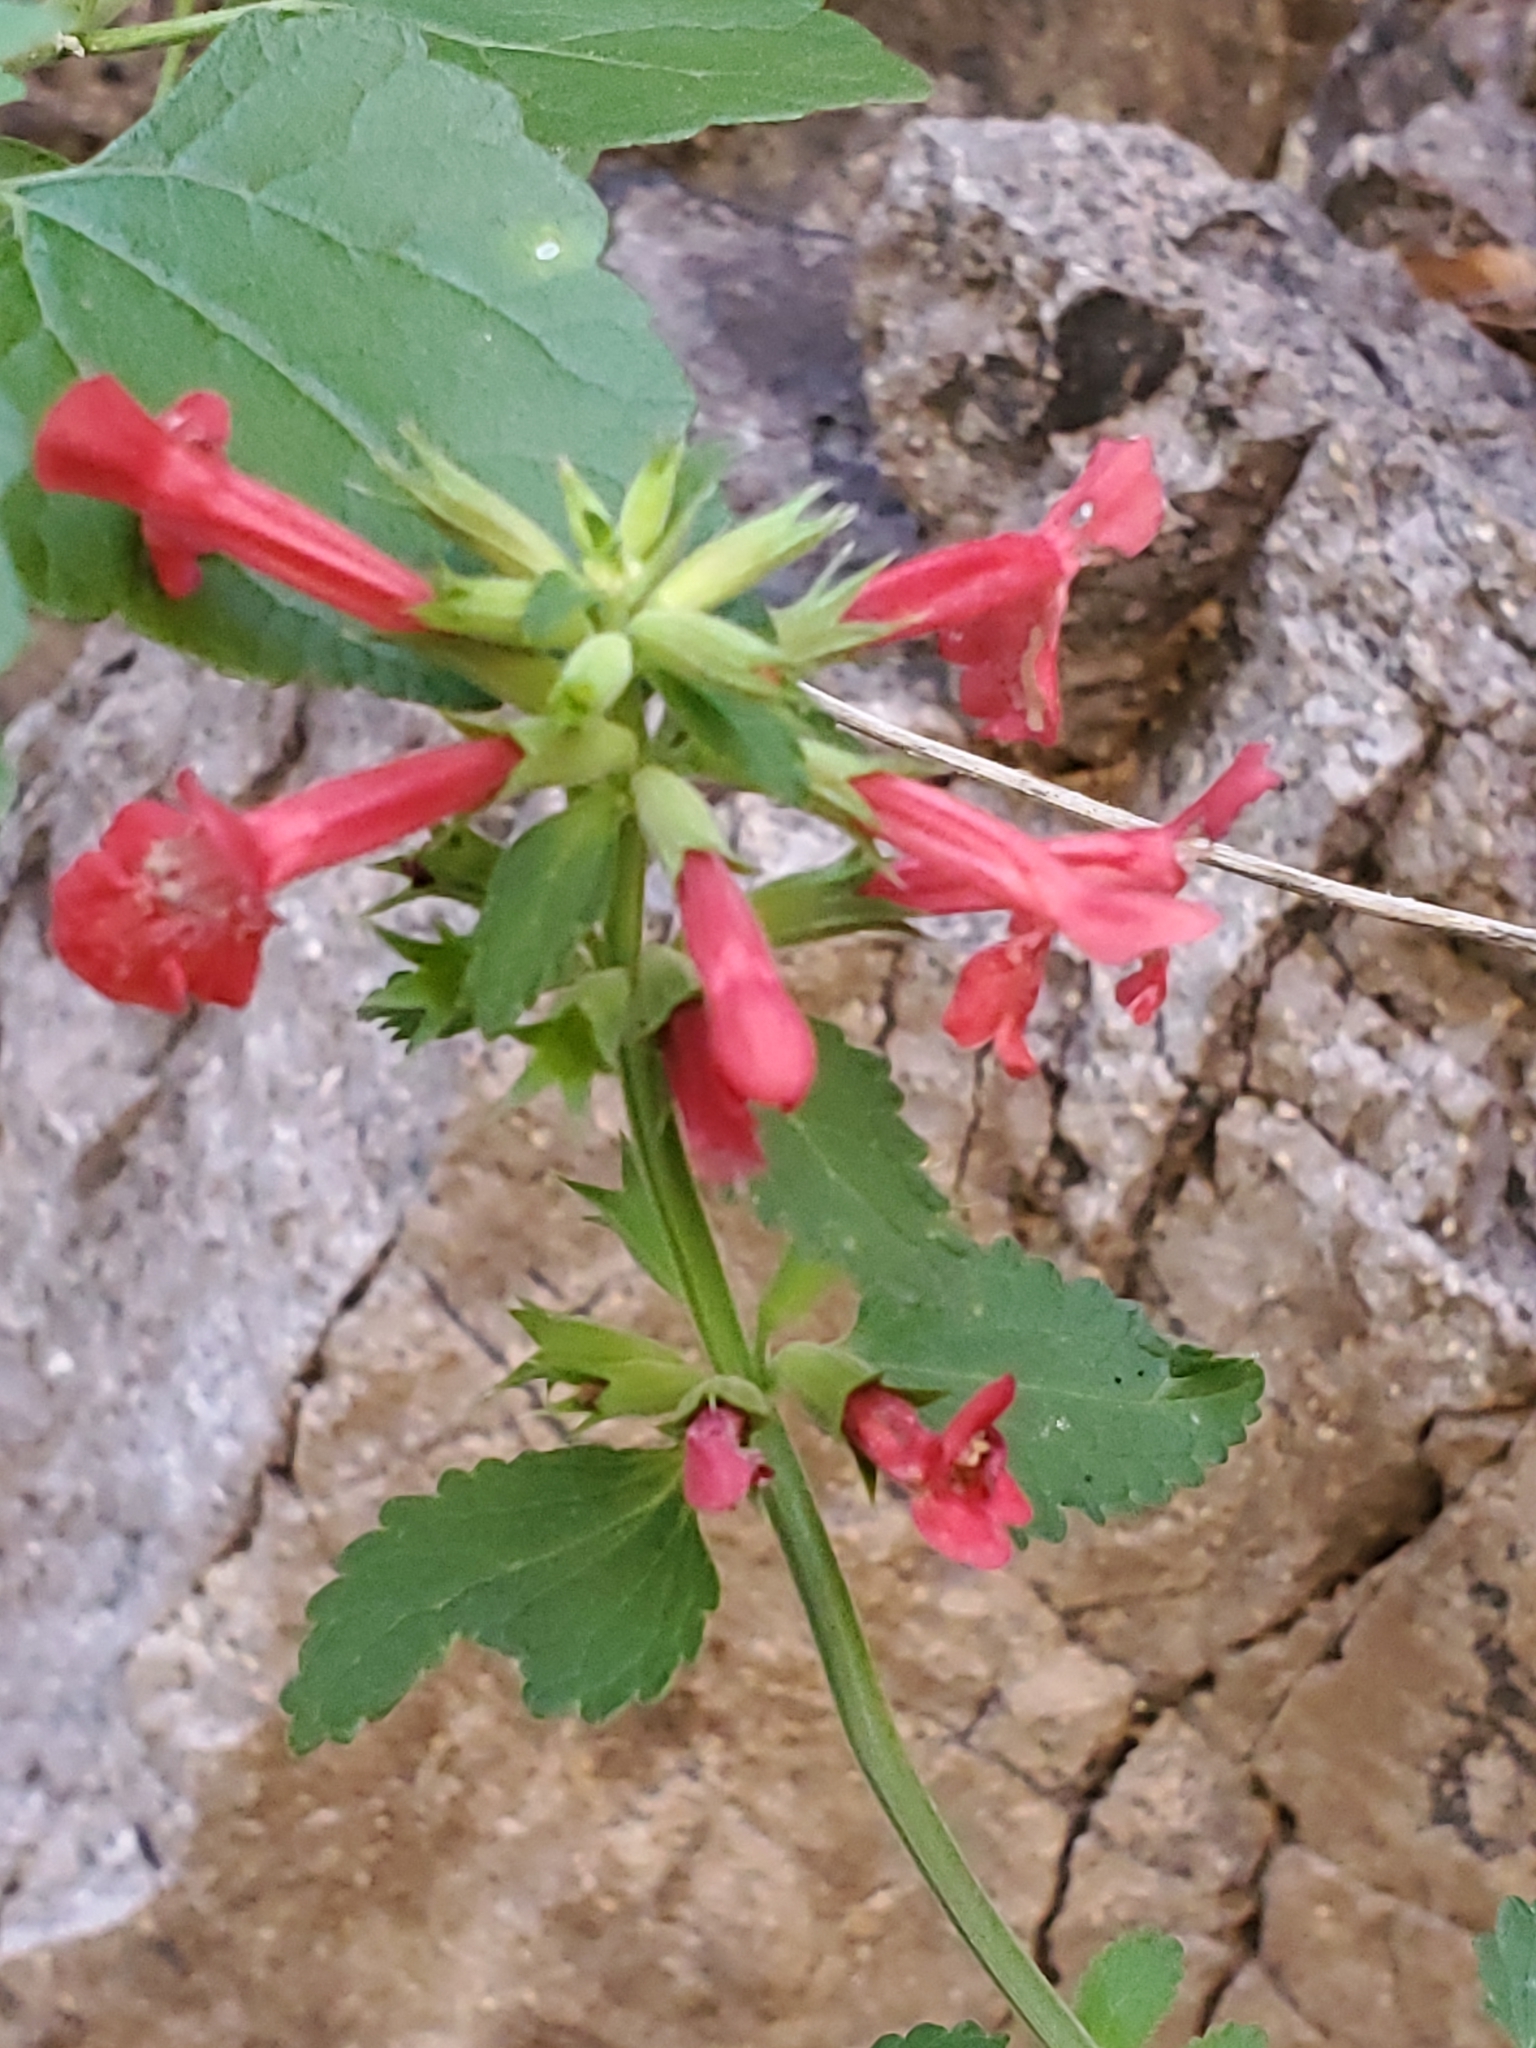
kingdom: Plantae
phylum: Tracheophyta
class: Magnoliopsida
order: Lamiales
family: Lamiaceae
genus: Stachys
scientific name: Stachys coccinea
